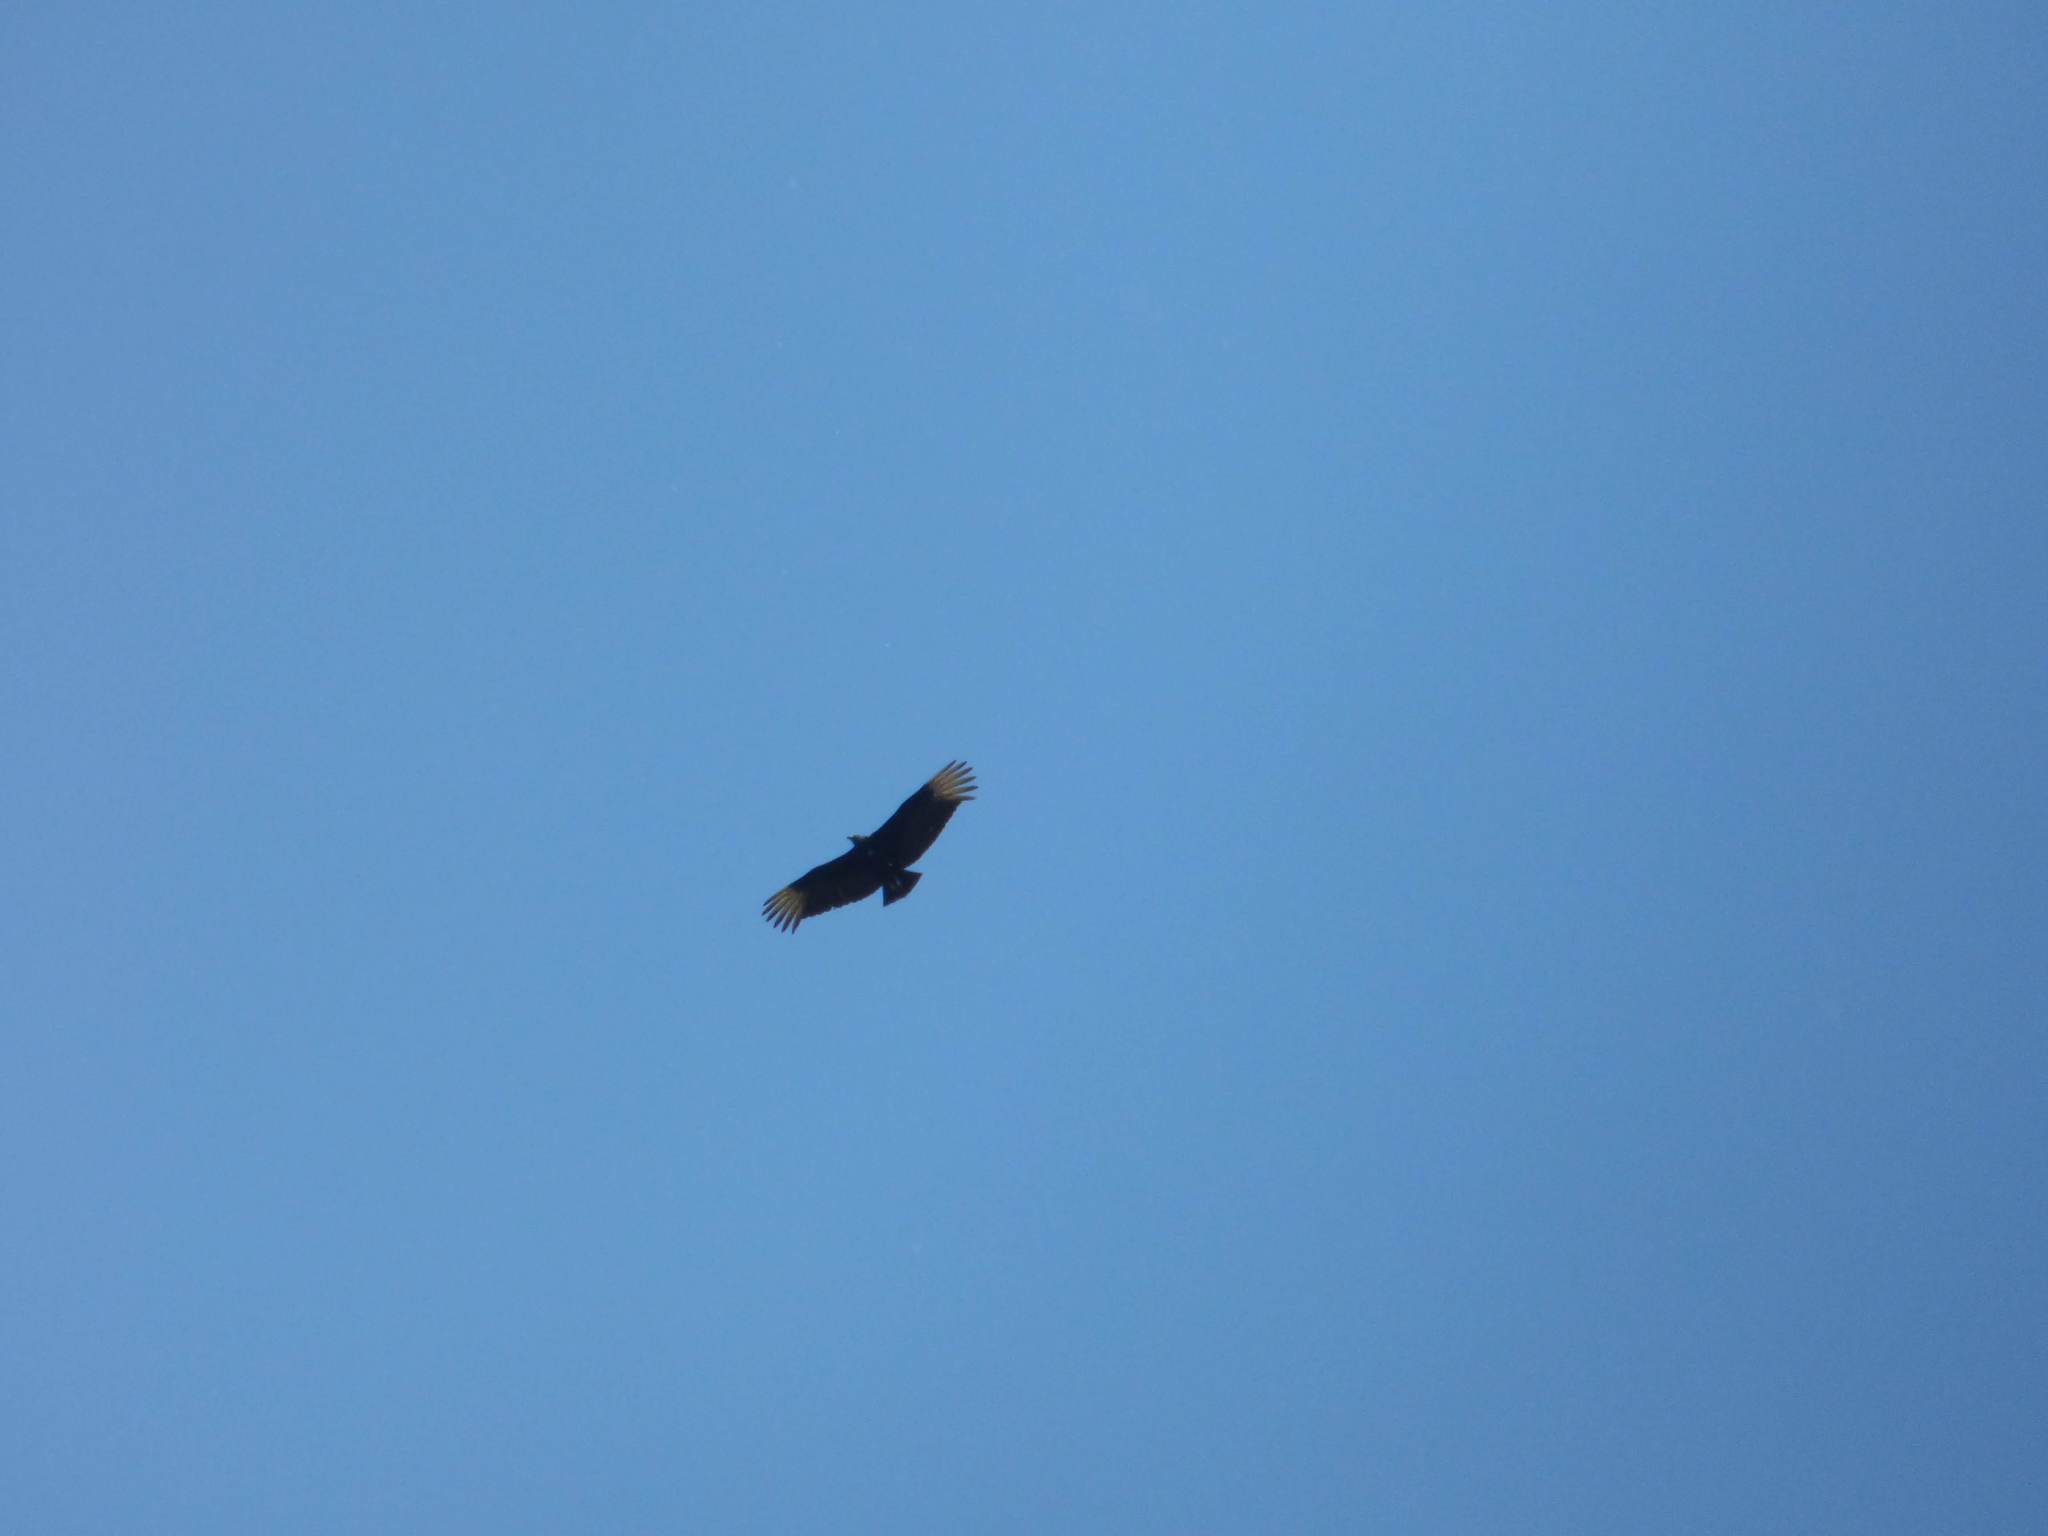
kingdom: Animalia
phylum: Chordata
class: Aves
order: Accipitriformes
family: Cathartidae
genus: Coragyps
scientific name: Coragyps atratus
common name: Black vulture
